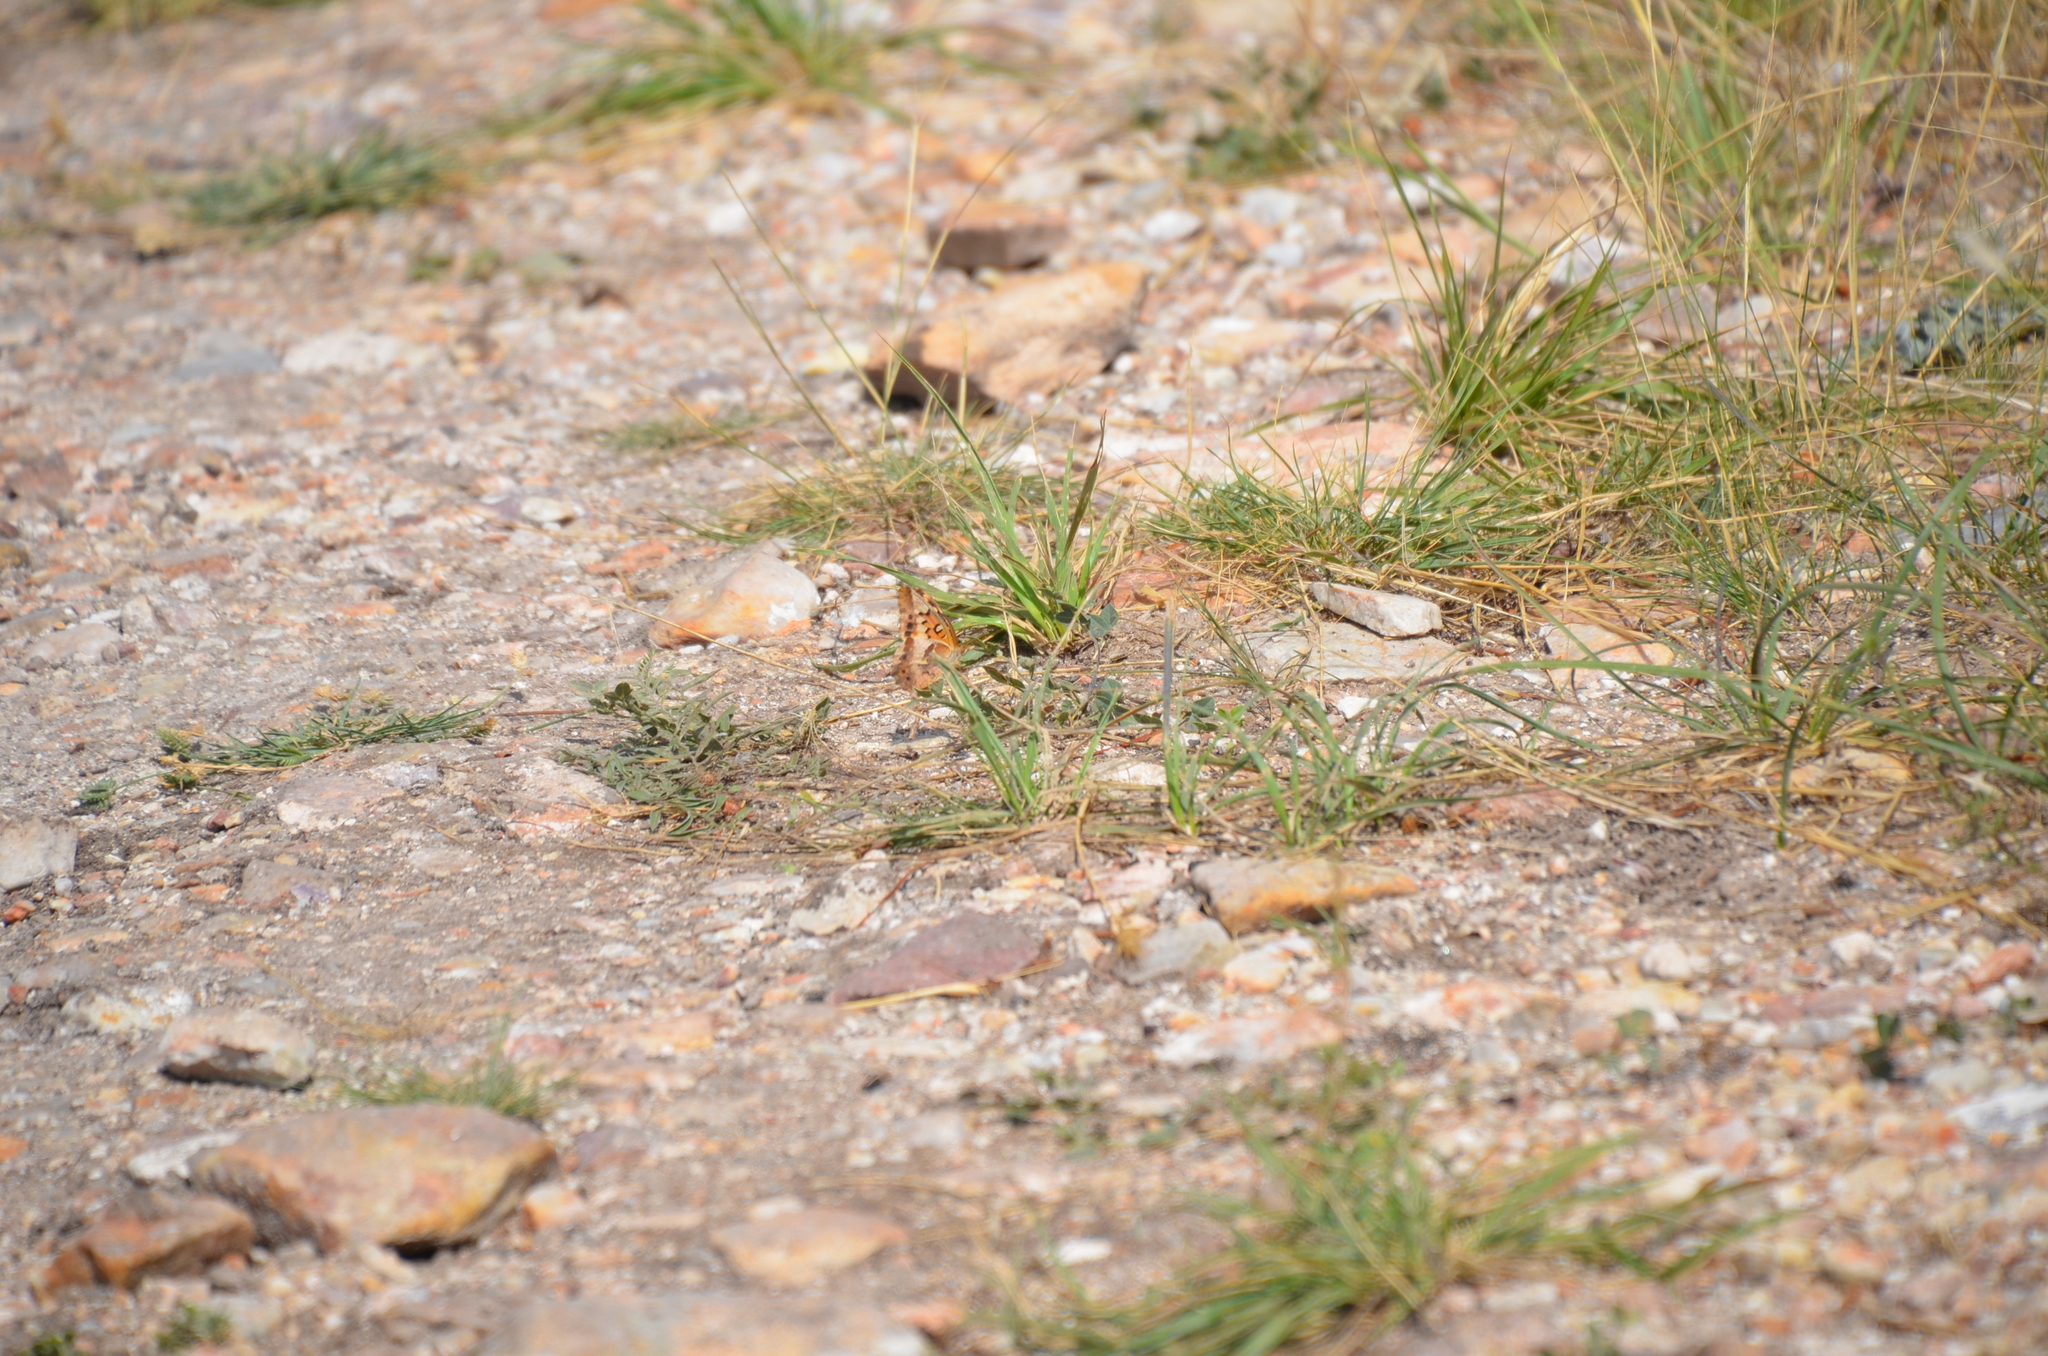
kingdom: Animalia
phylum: Arthropoda
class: Insecta
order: Lepidoptera
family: Nymphalidae
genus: Euptoieta
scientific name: Euptoieta hortensia
